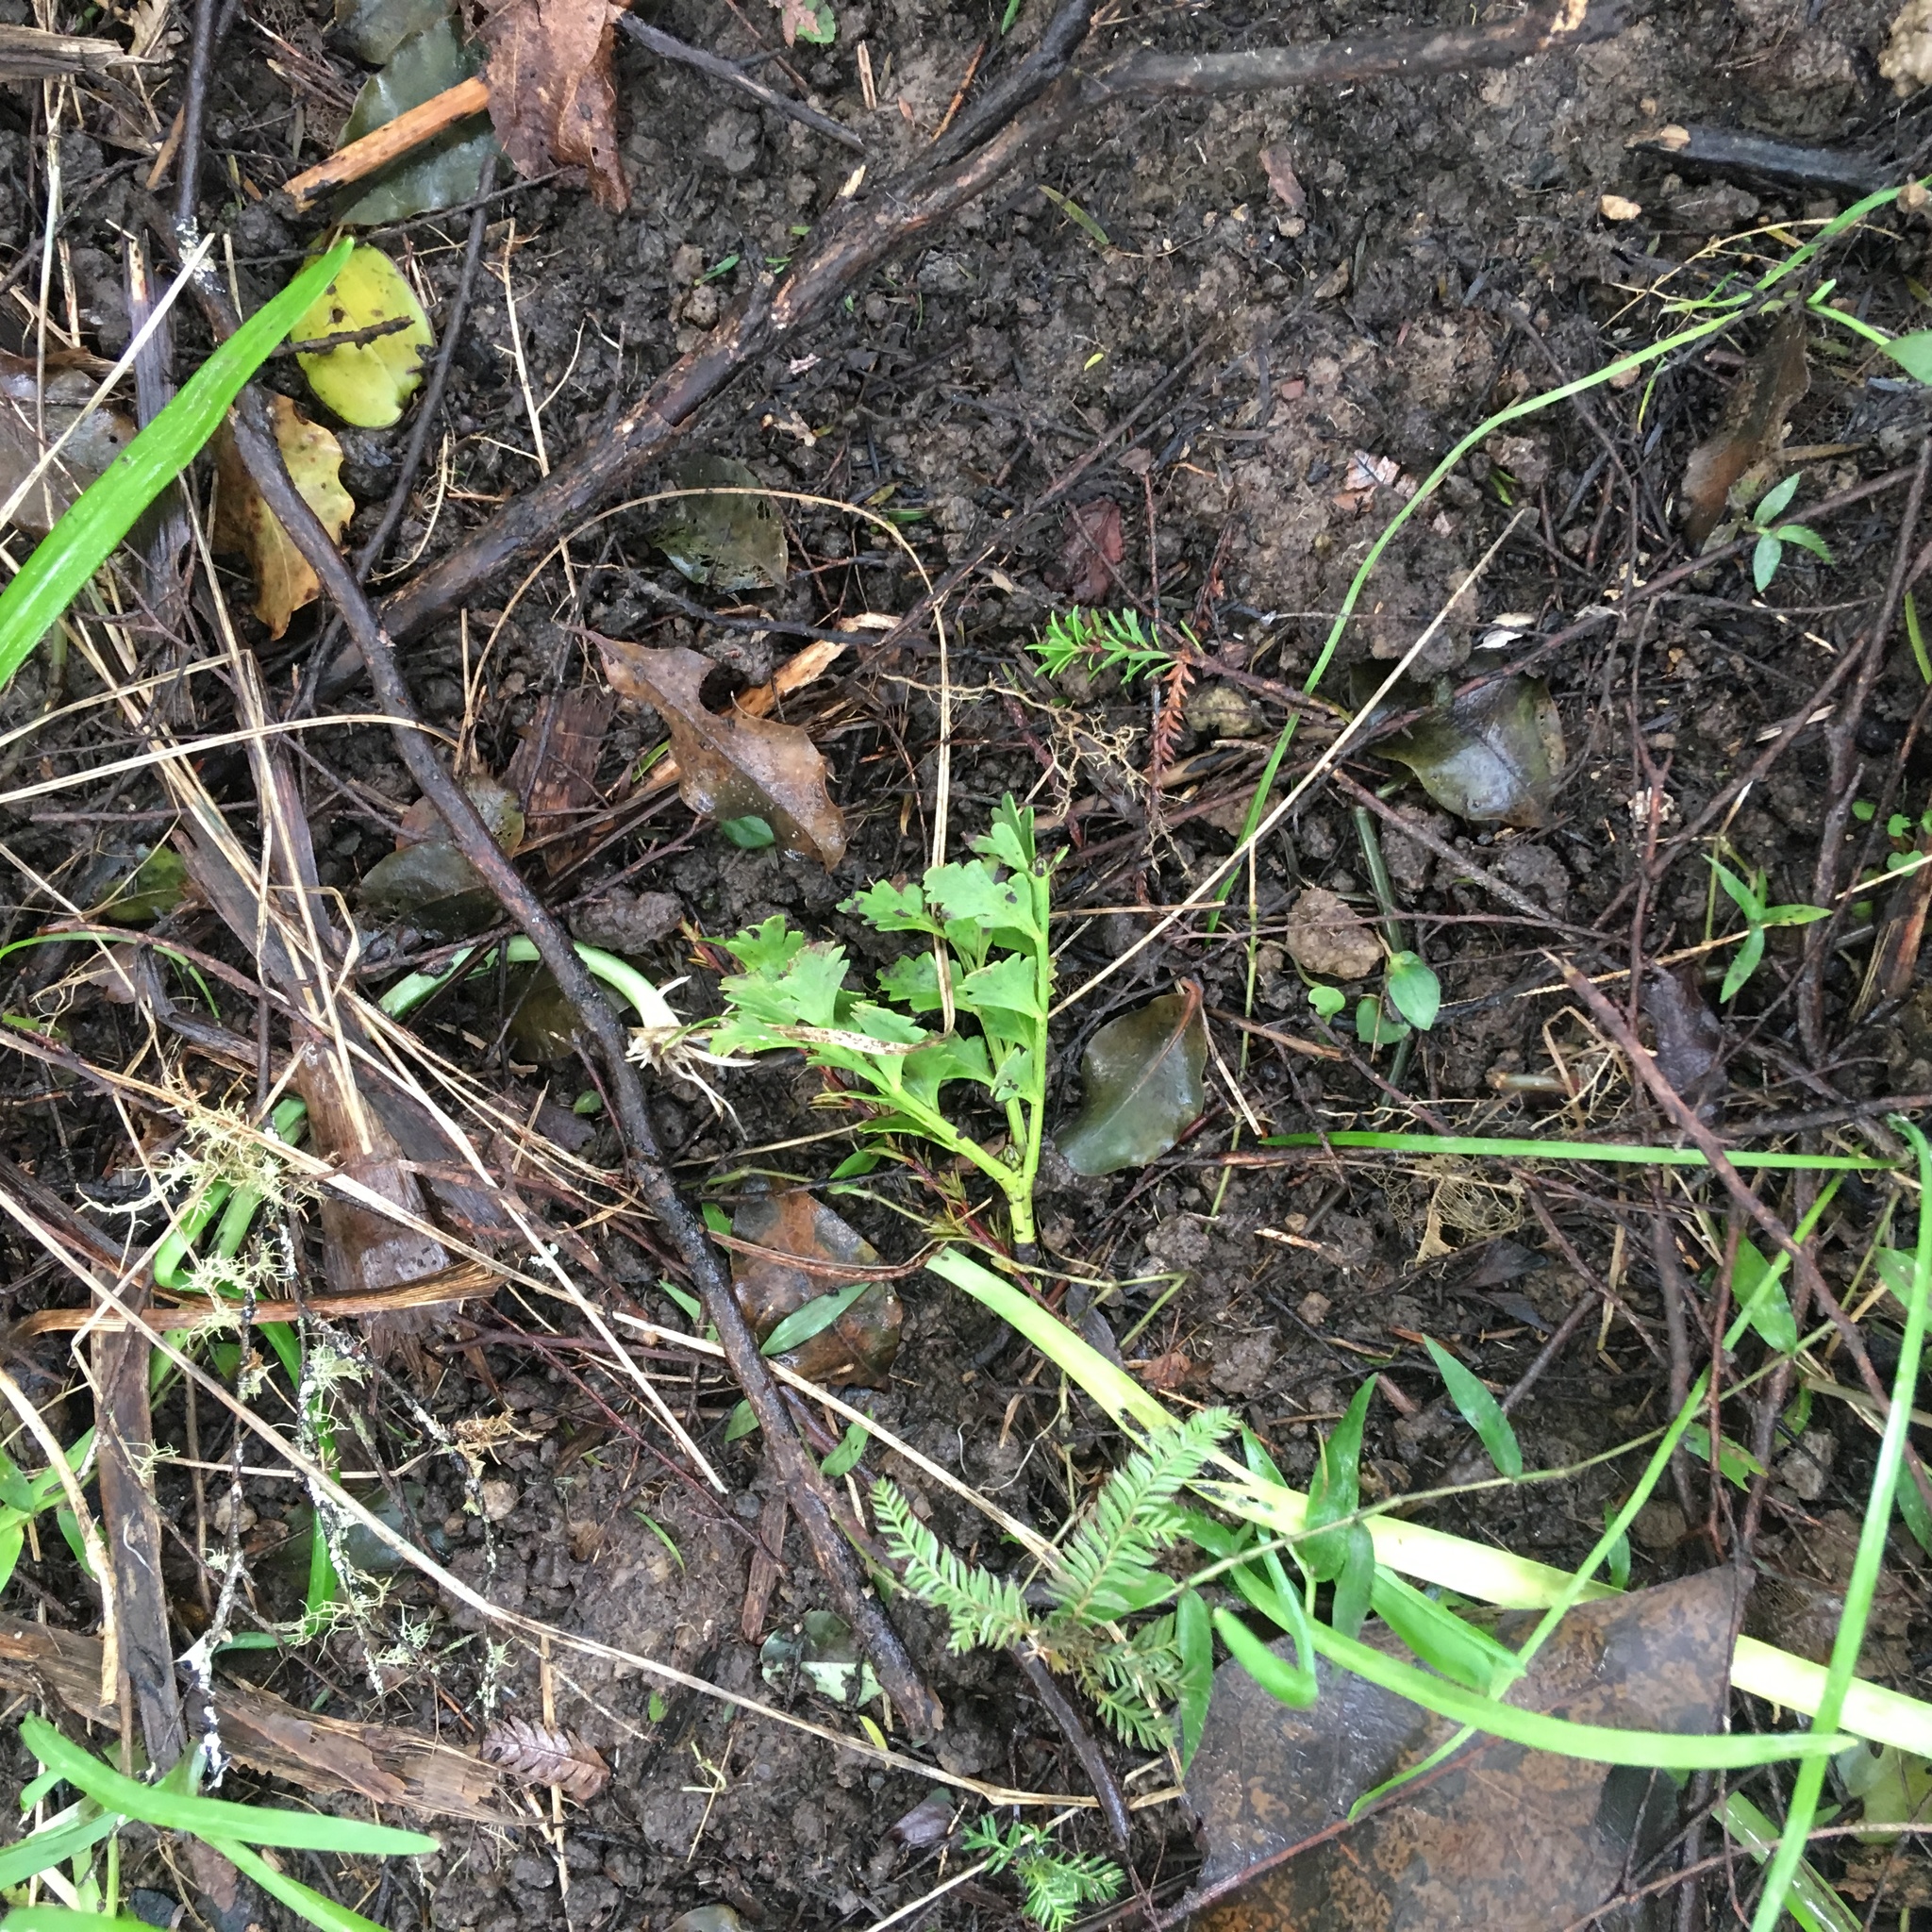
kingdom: Plantae
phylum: Tracheophyta
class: Pinopsida
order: Pinales
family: Phyllocladaceae
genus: Phyllocladus
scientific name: Phyllocladus trichomanoides
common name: Celery pine
